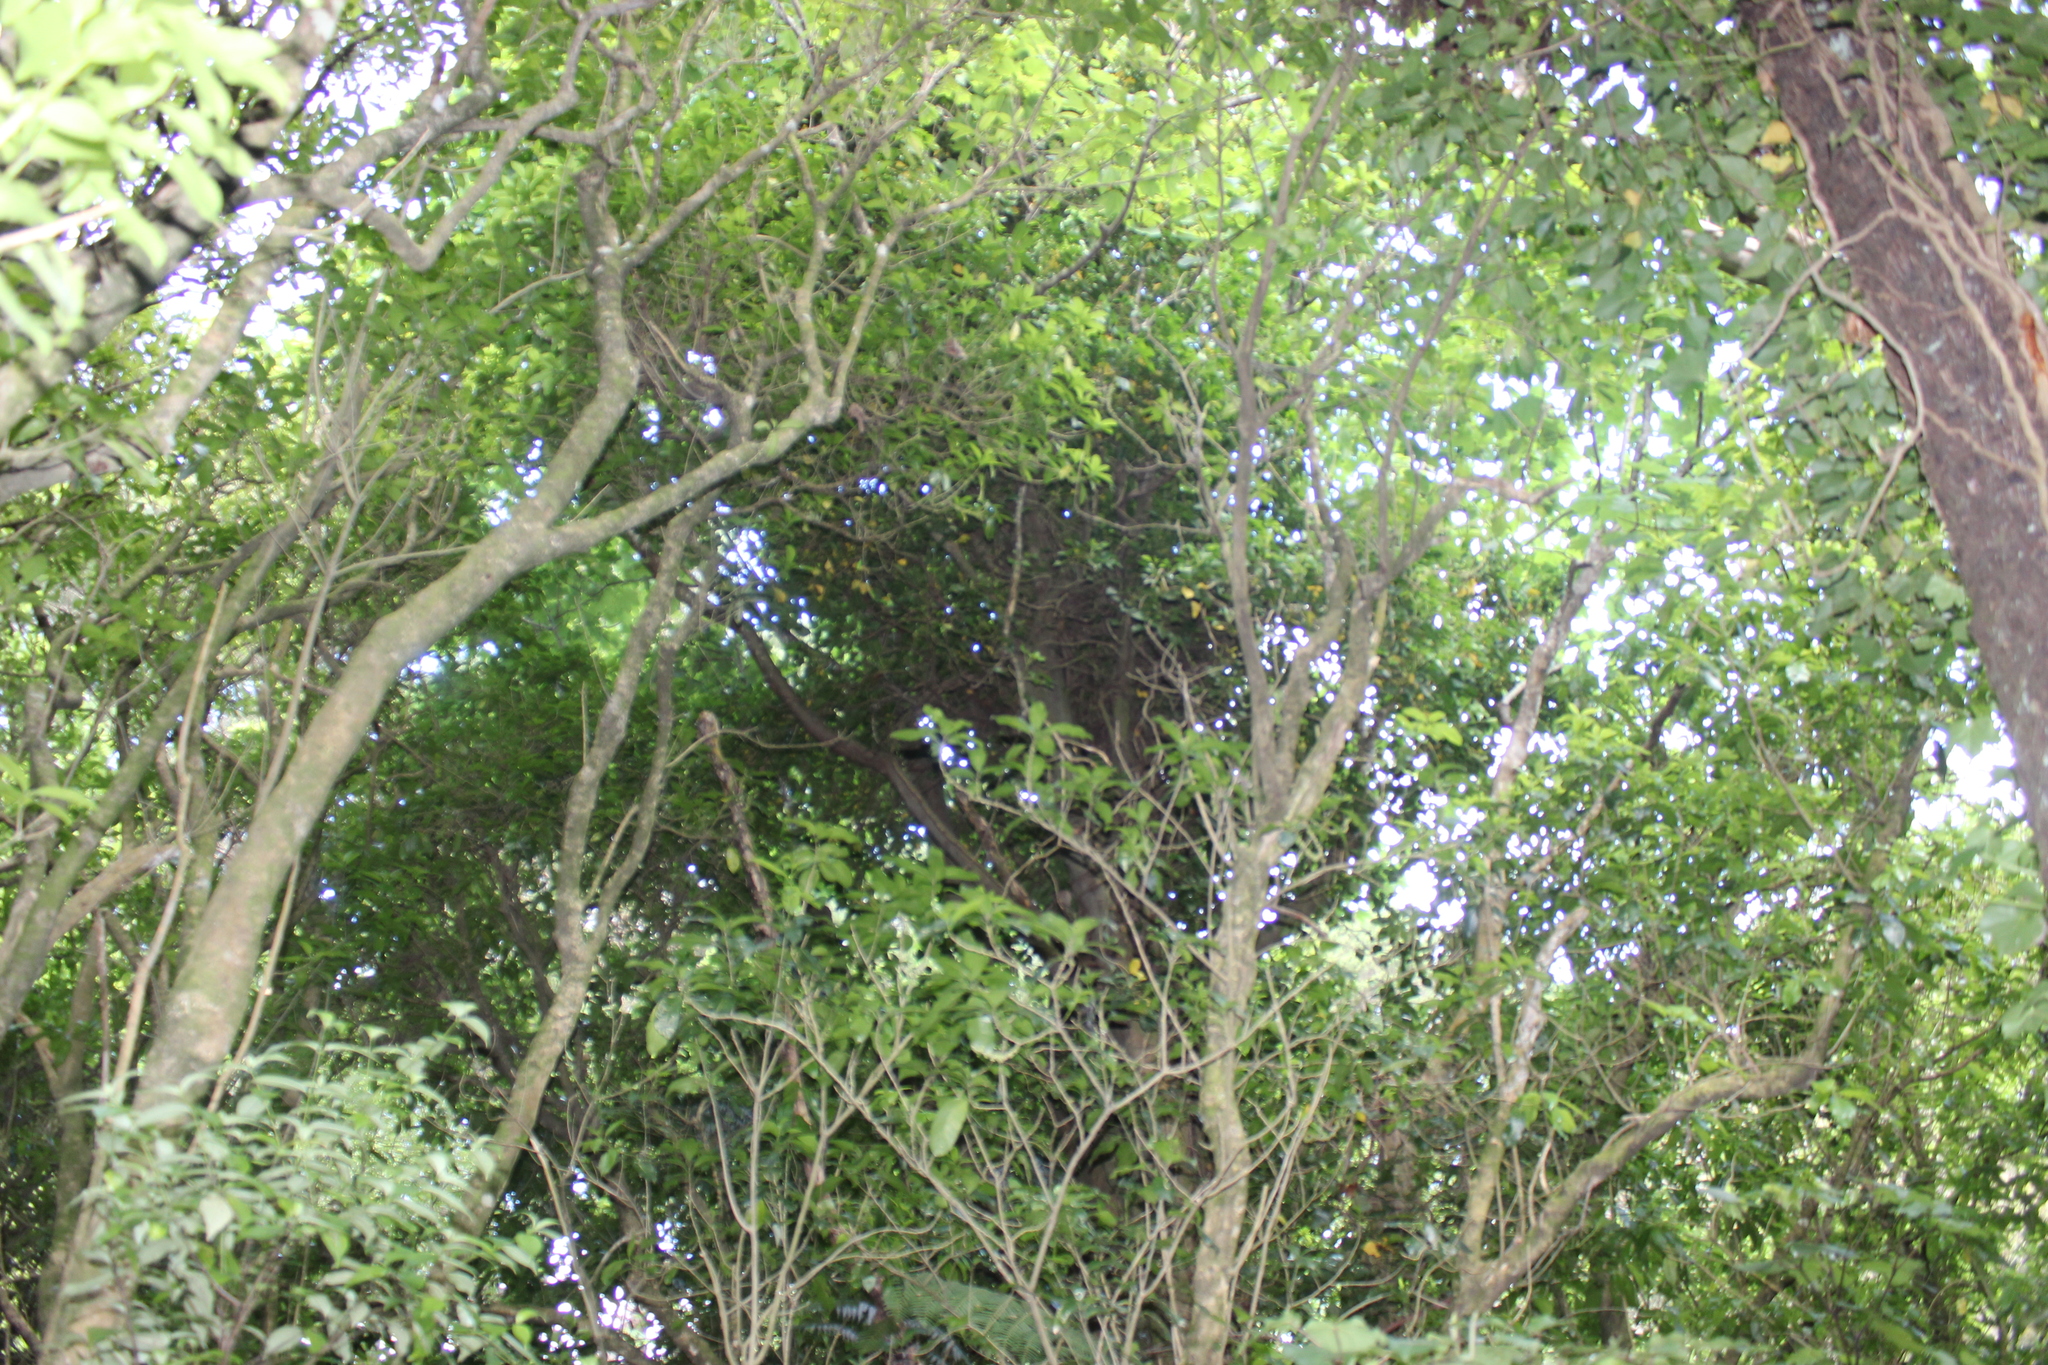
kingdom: Plantae
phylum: Tracheophyta
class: Magnoliopsida
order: Apiales
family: Araliaceae
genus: Hedera
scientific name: Hedera helix
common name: Ivy
